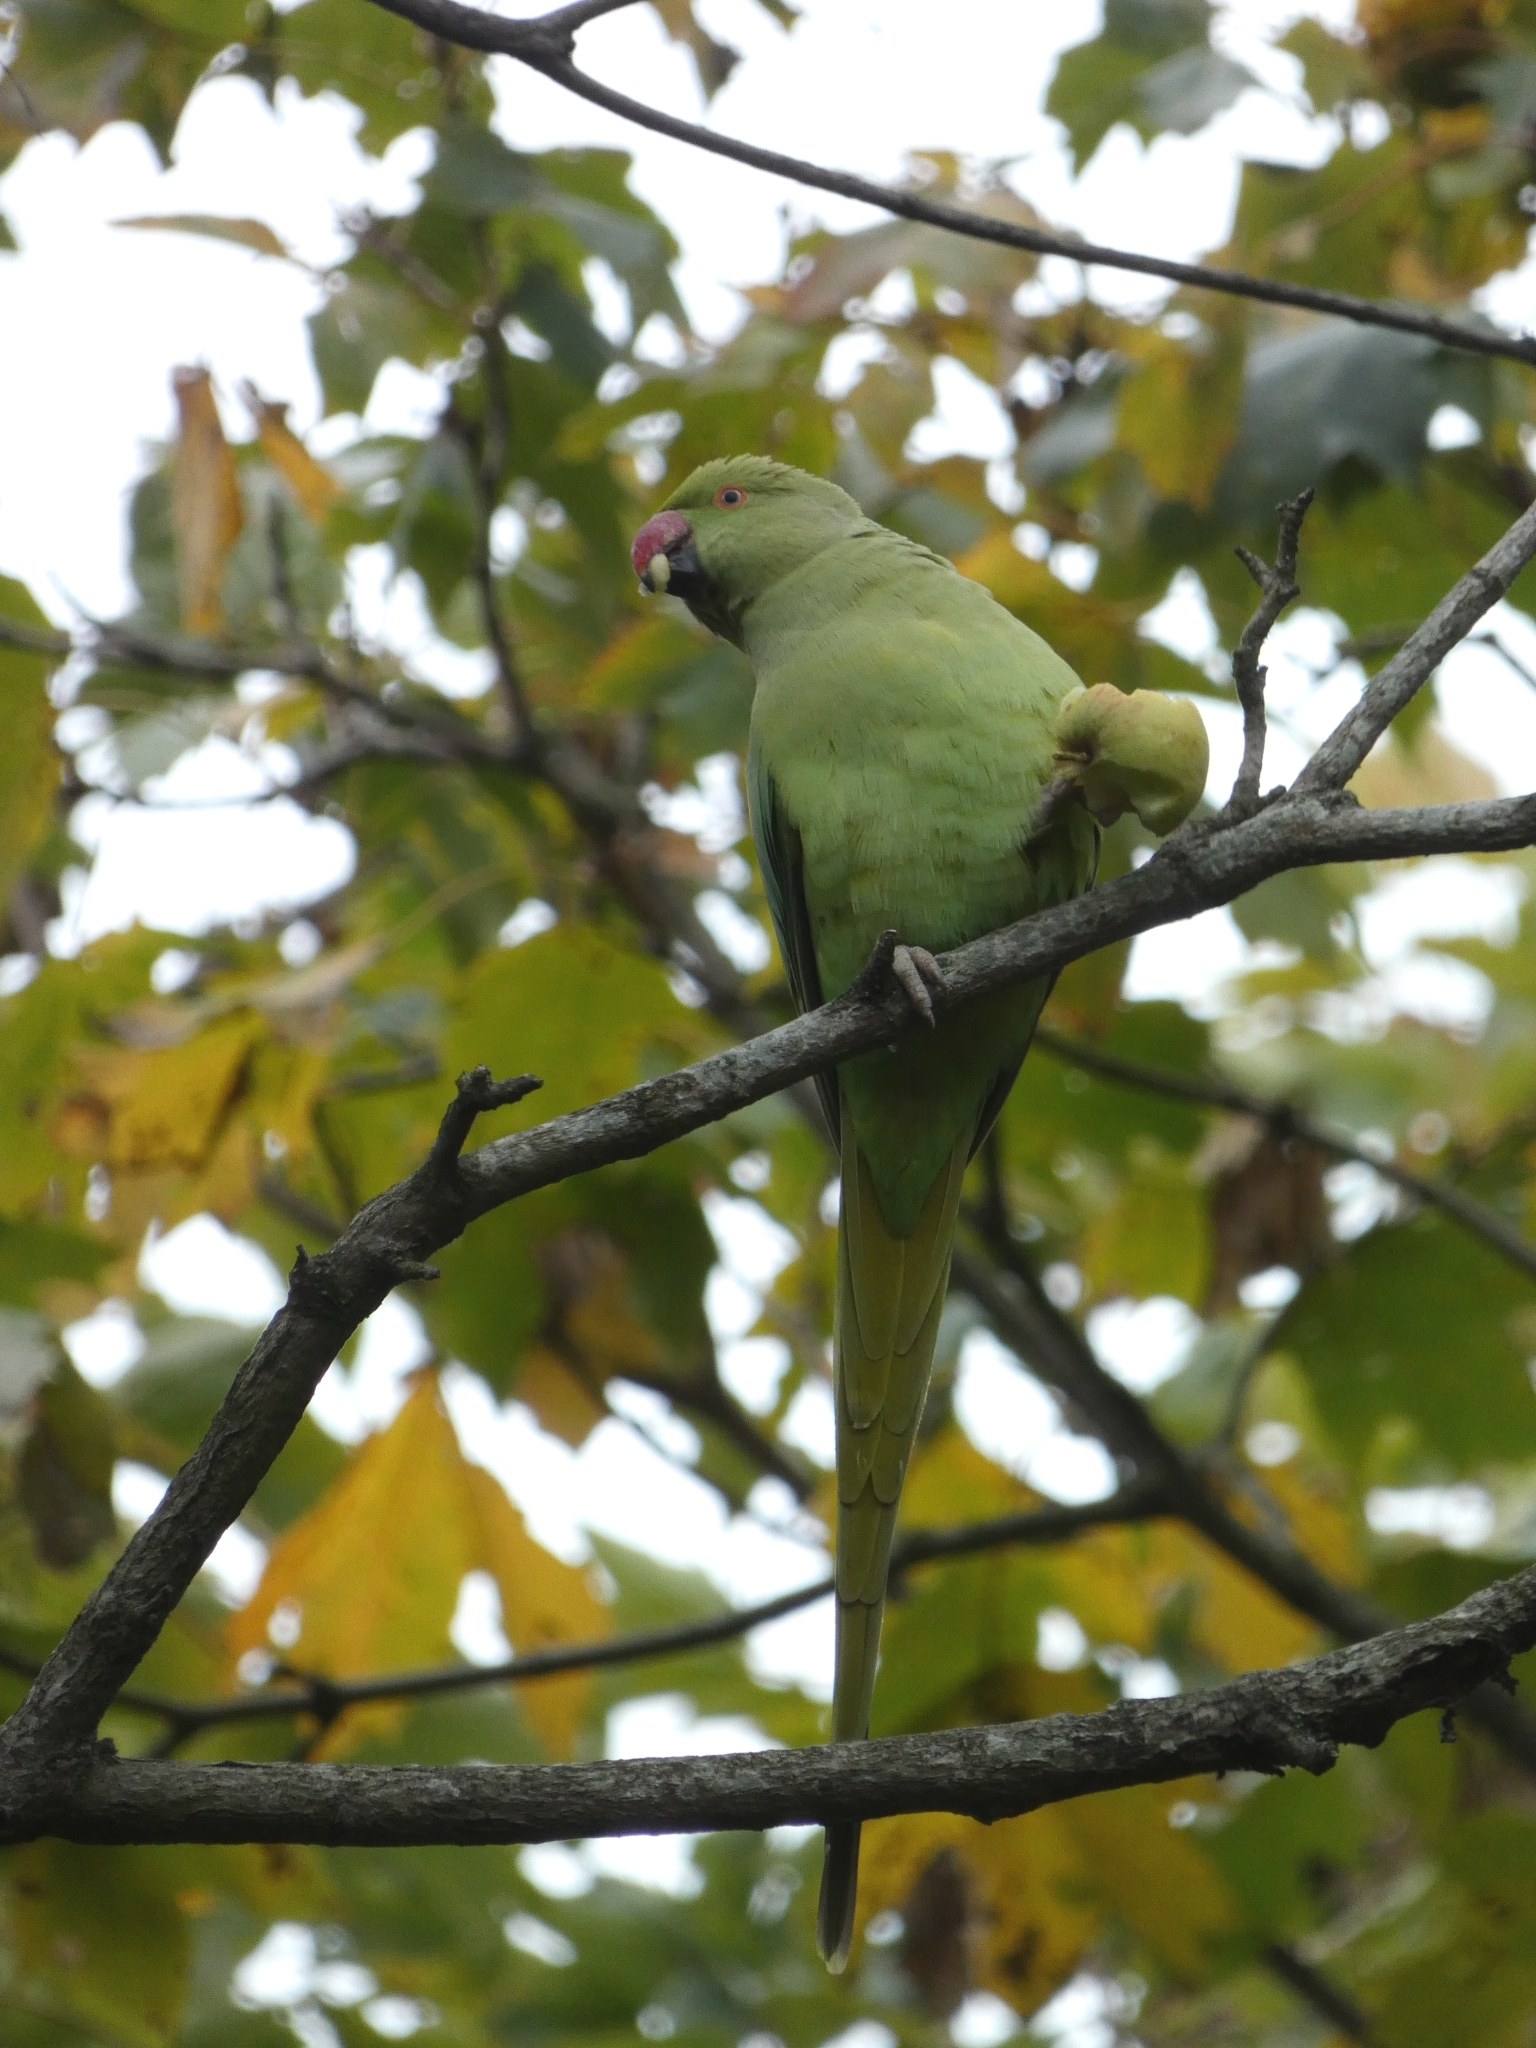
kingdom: Animalia
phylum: Chordata
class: Aves
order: Psittaciformes
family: Psittacidae
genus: Psittacula
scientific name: Psittacula krameri
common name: Rose-ringed parakeet
